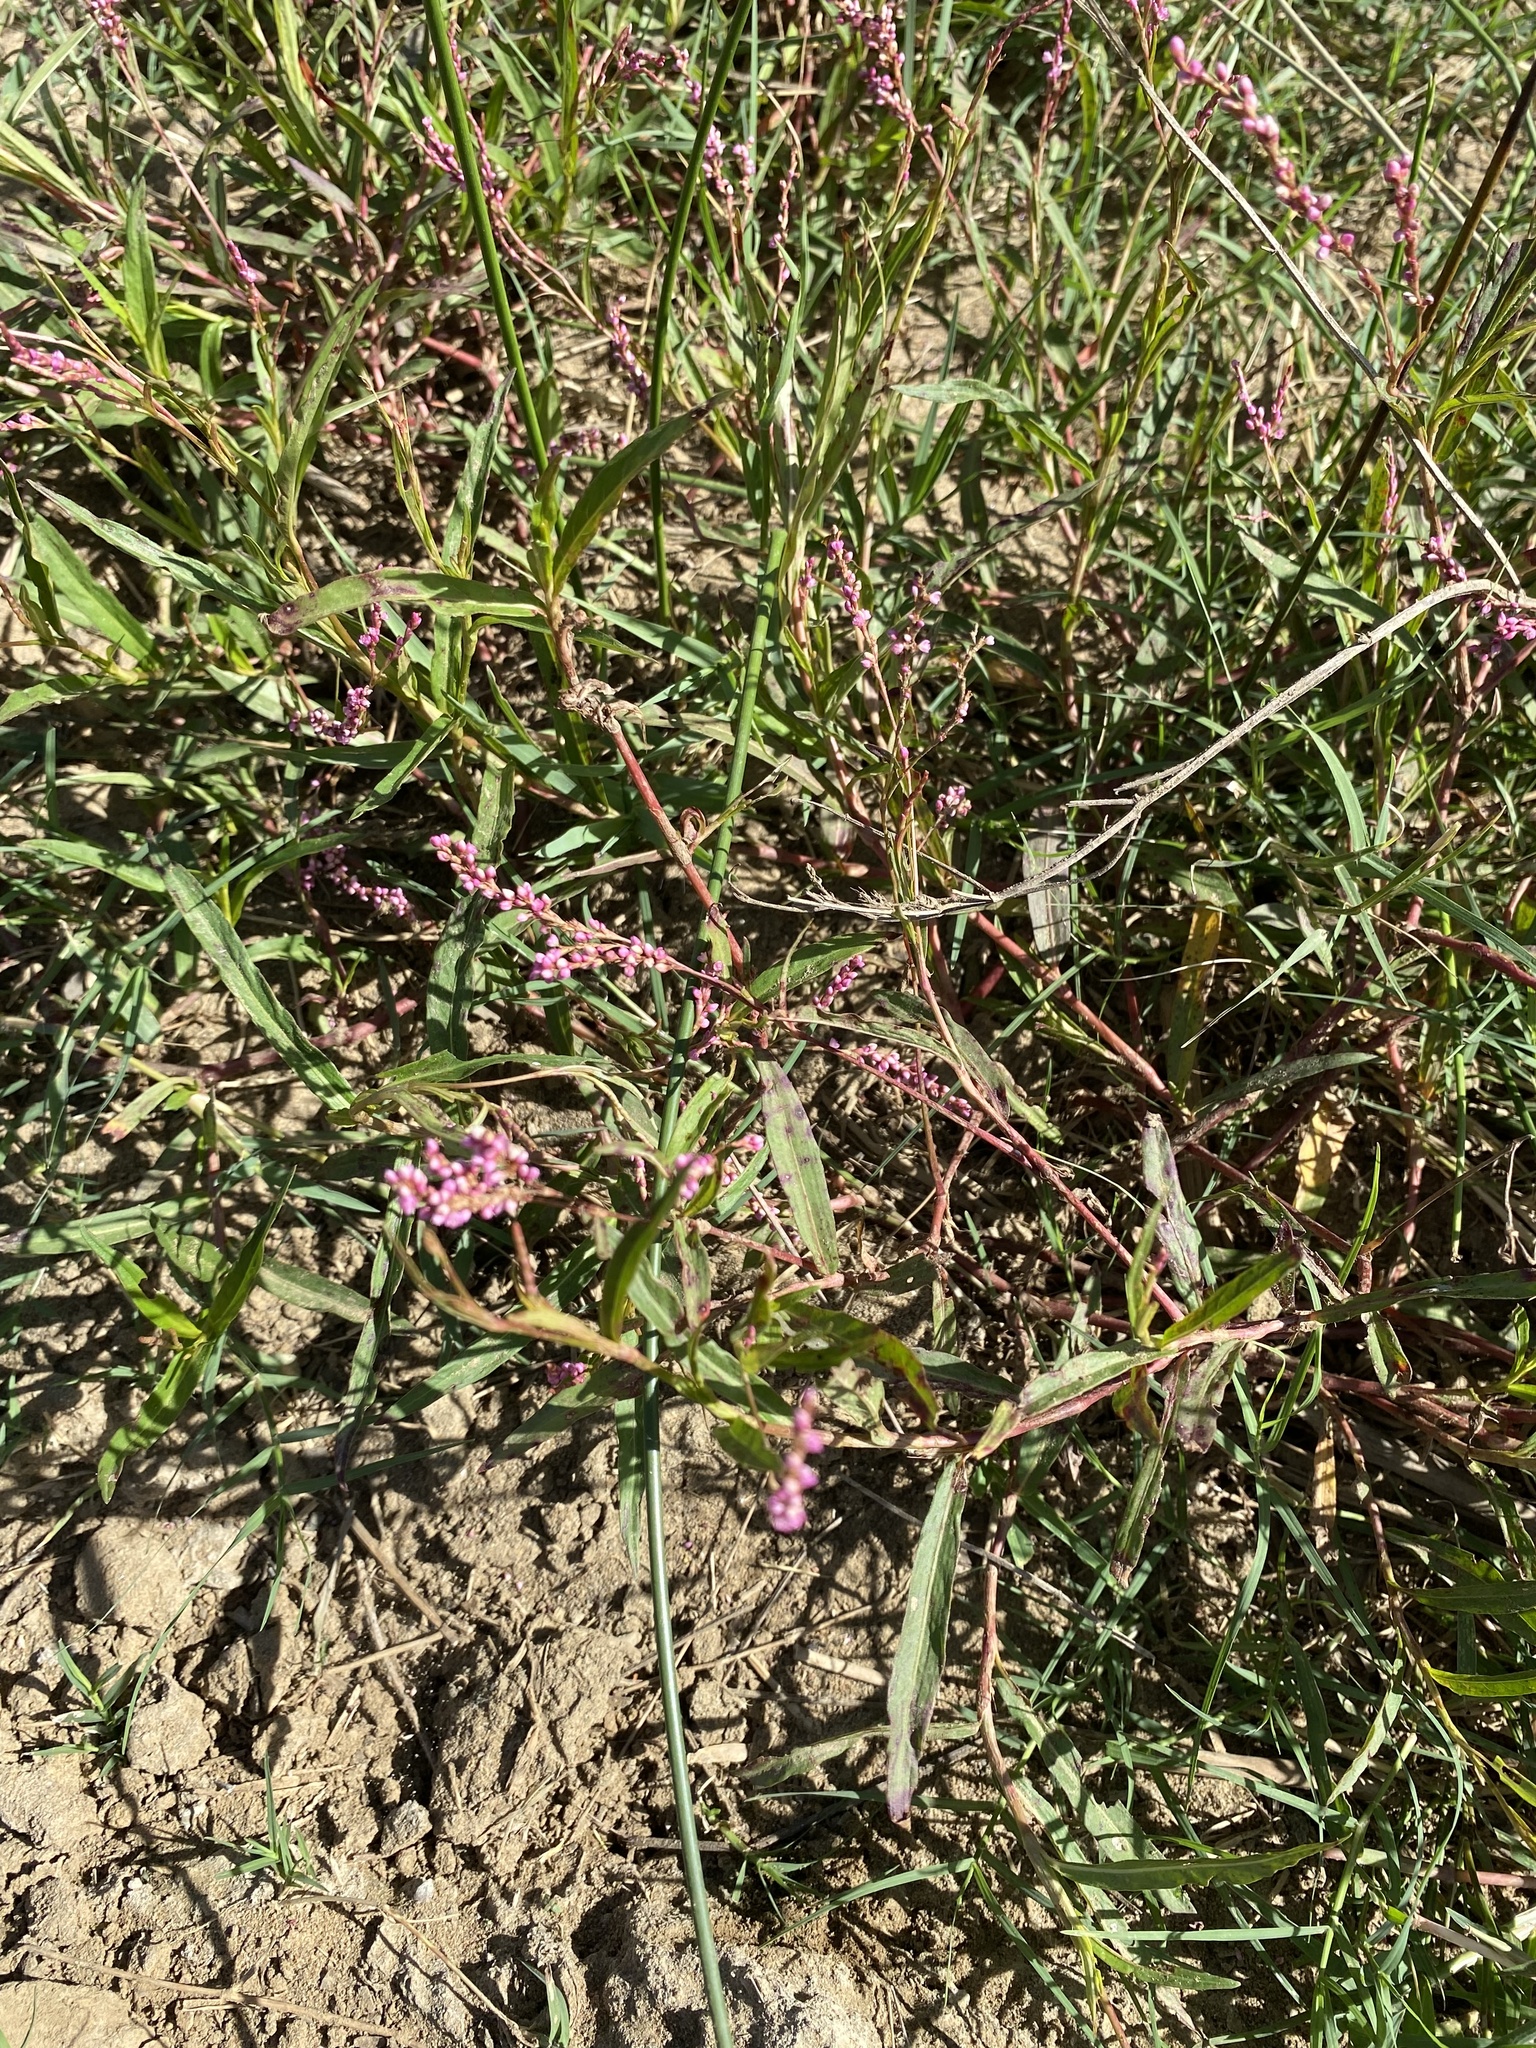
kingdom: Plantae
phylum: Tracheophyta
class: Magnoliopsida
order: Caryophyllales
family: Polygonaceae
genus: Persicaria
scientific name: Persicaria decipiens
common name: Willow-weed
